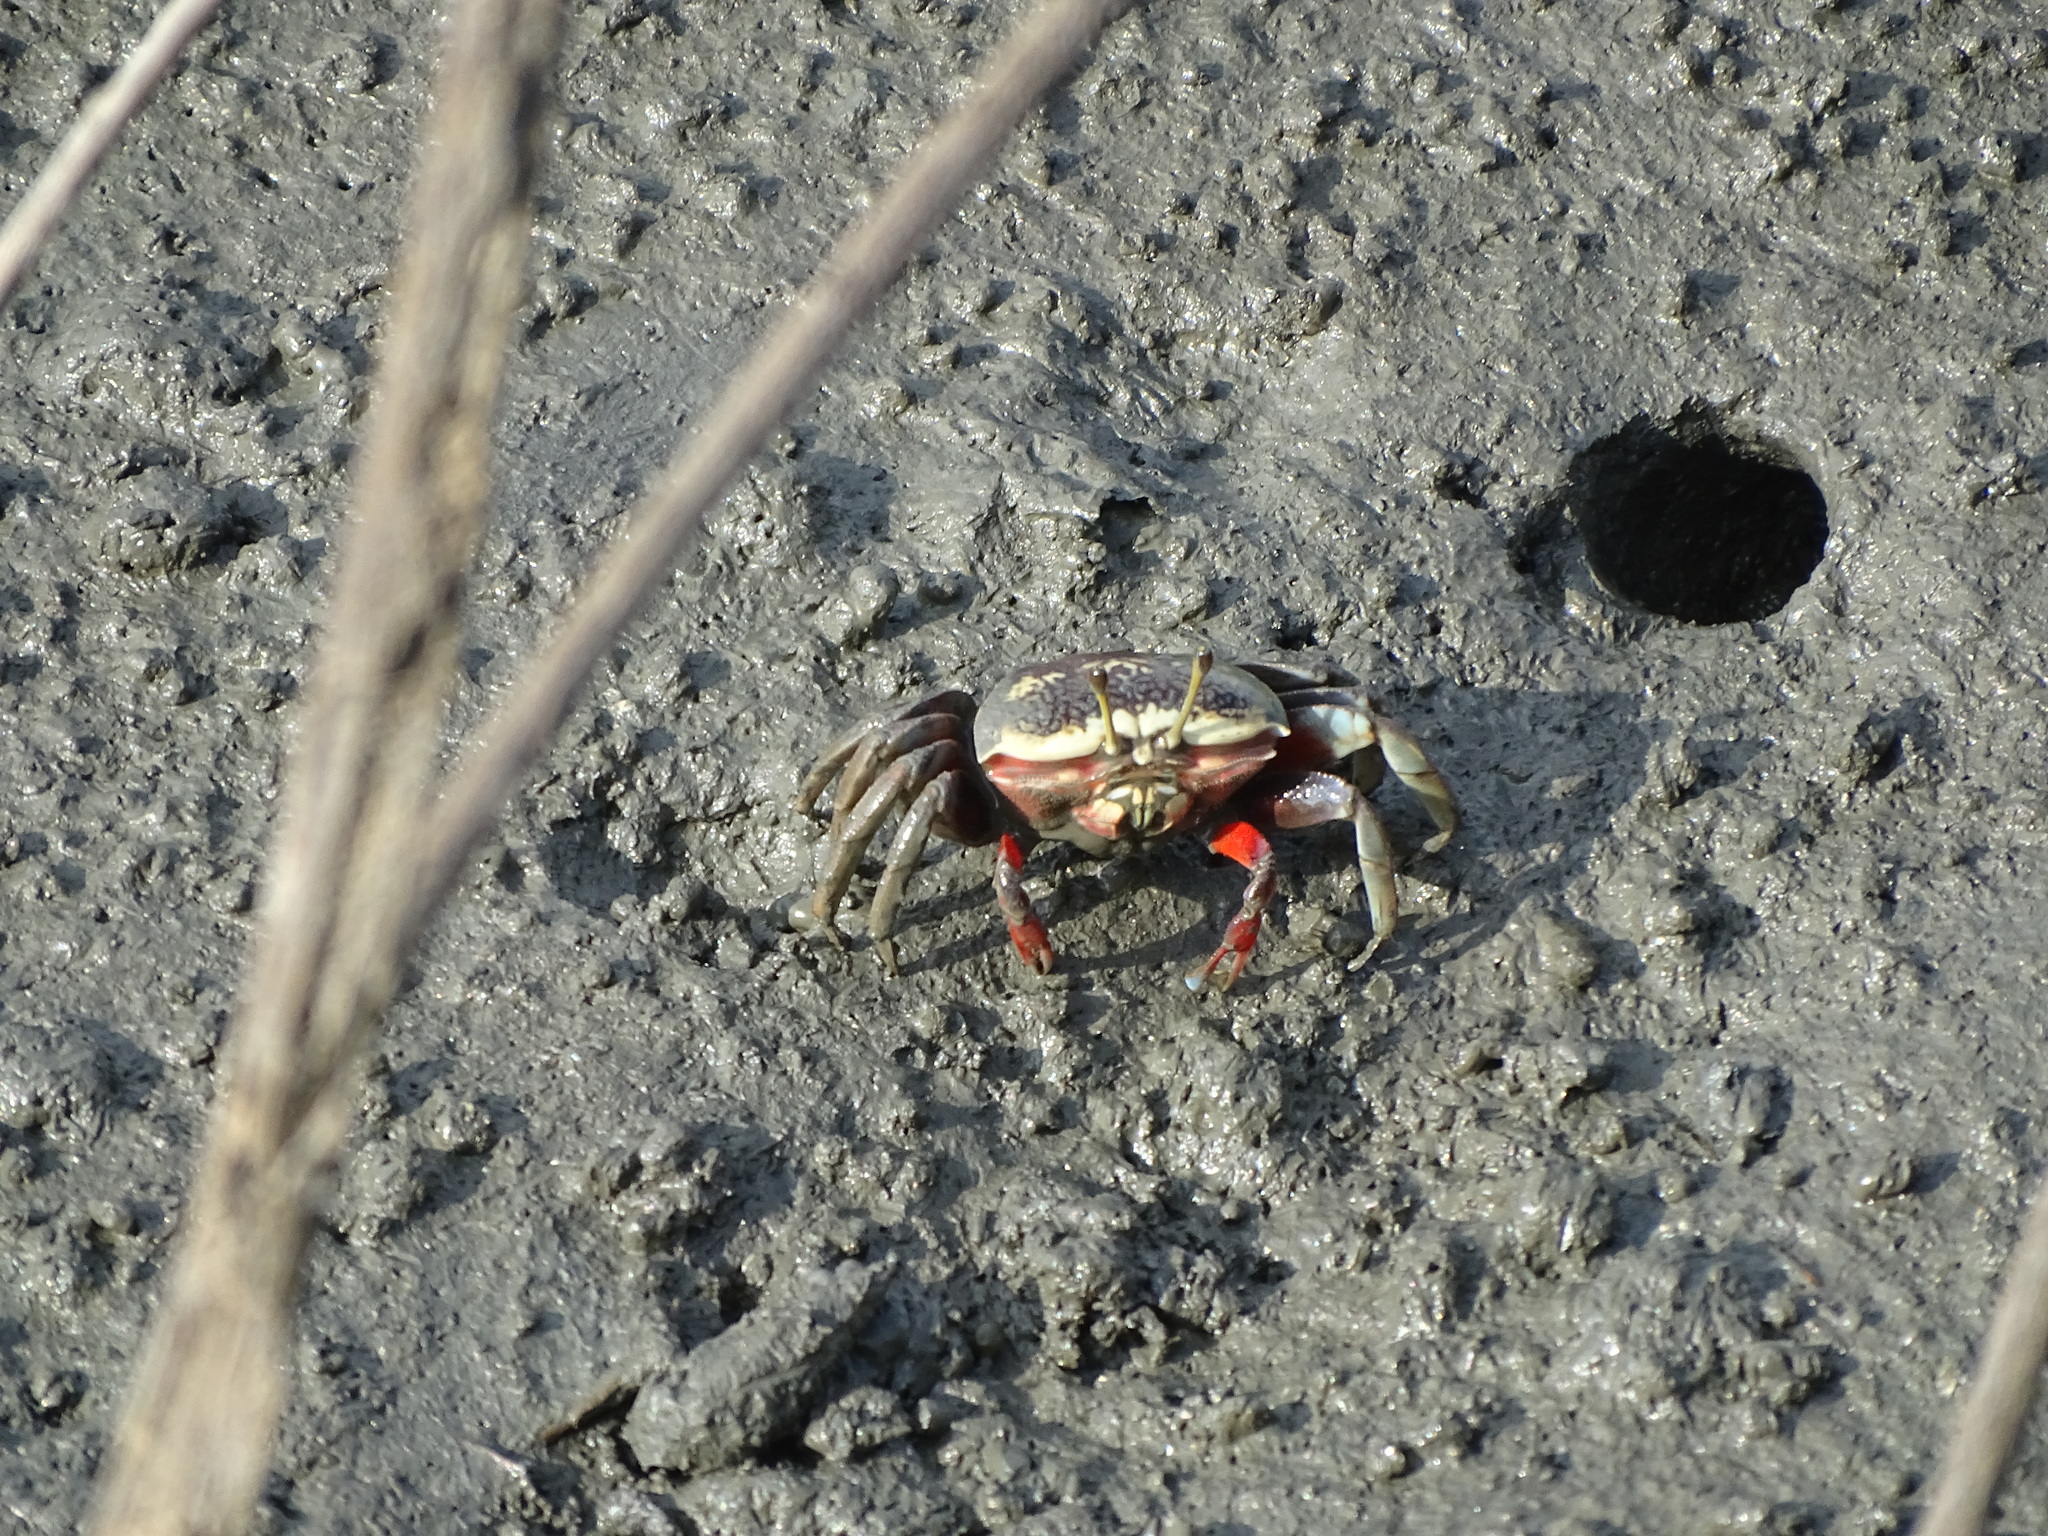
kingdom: Animalia
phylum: Arthropoda
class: Malacostraca
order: Decapoda
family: Ocypodidae
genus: Tubuca
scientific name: Tubuca arcuata
